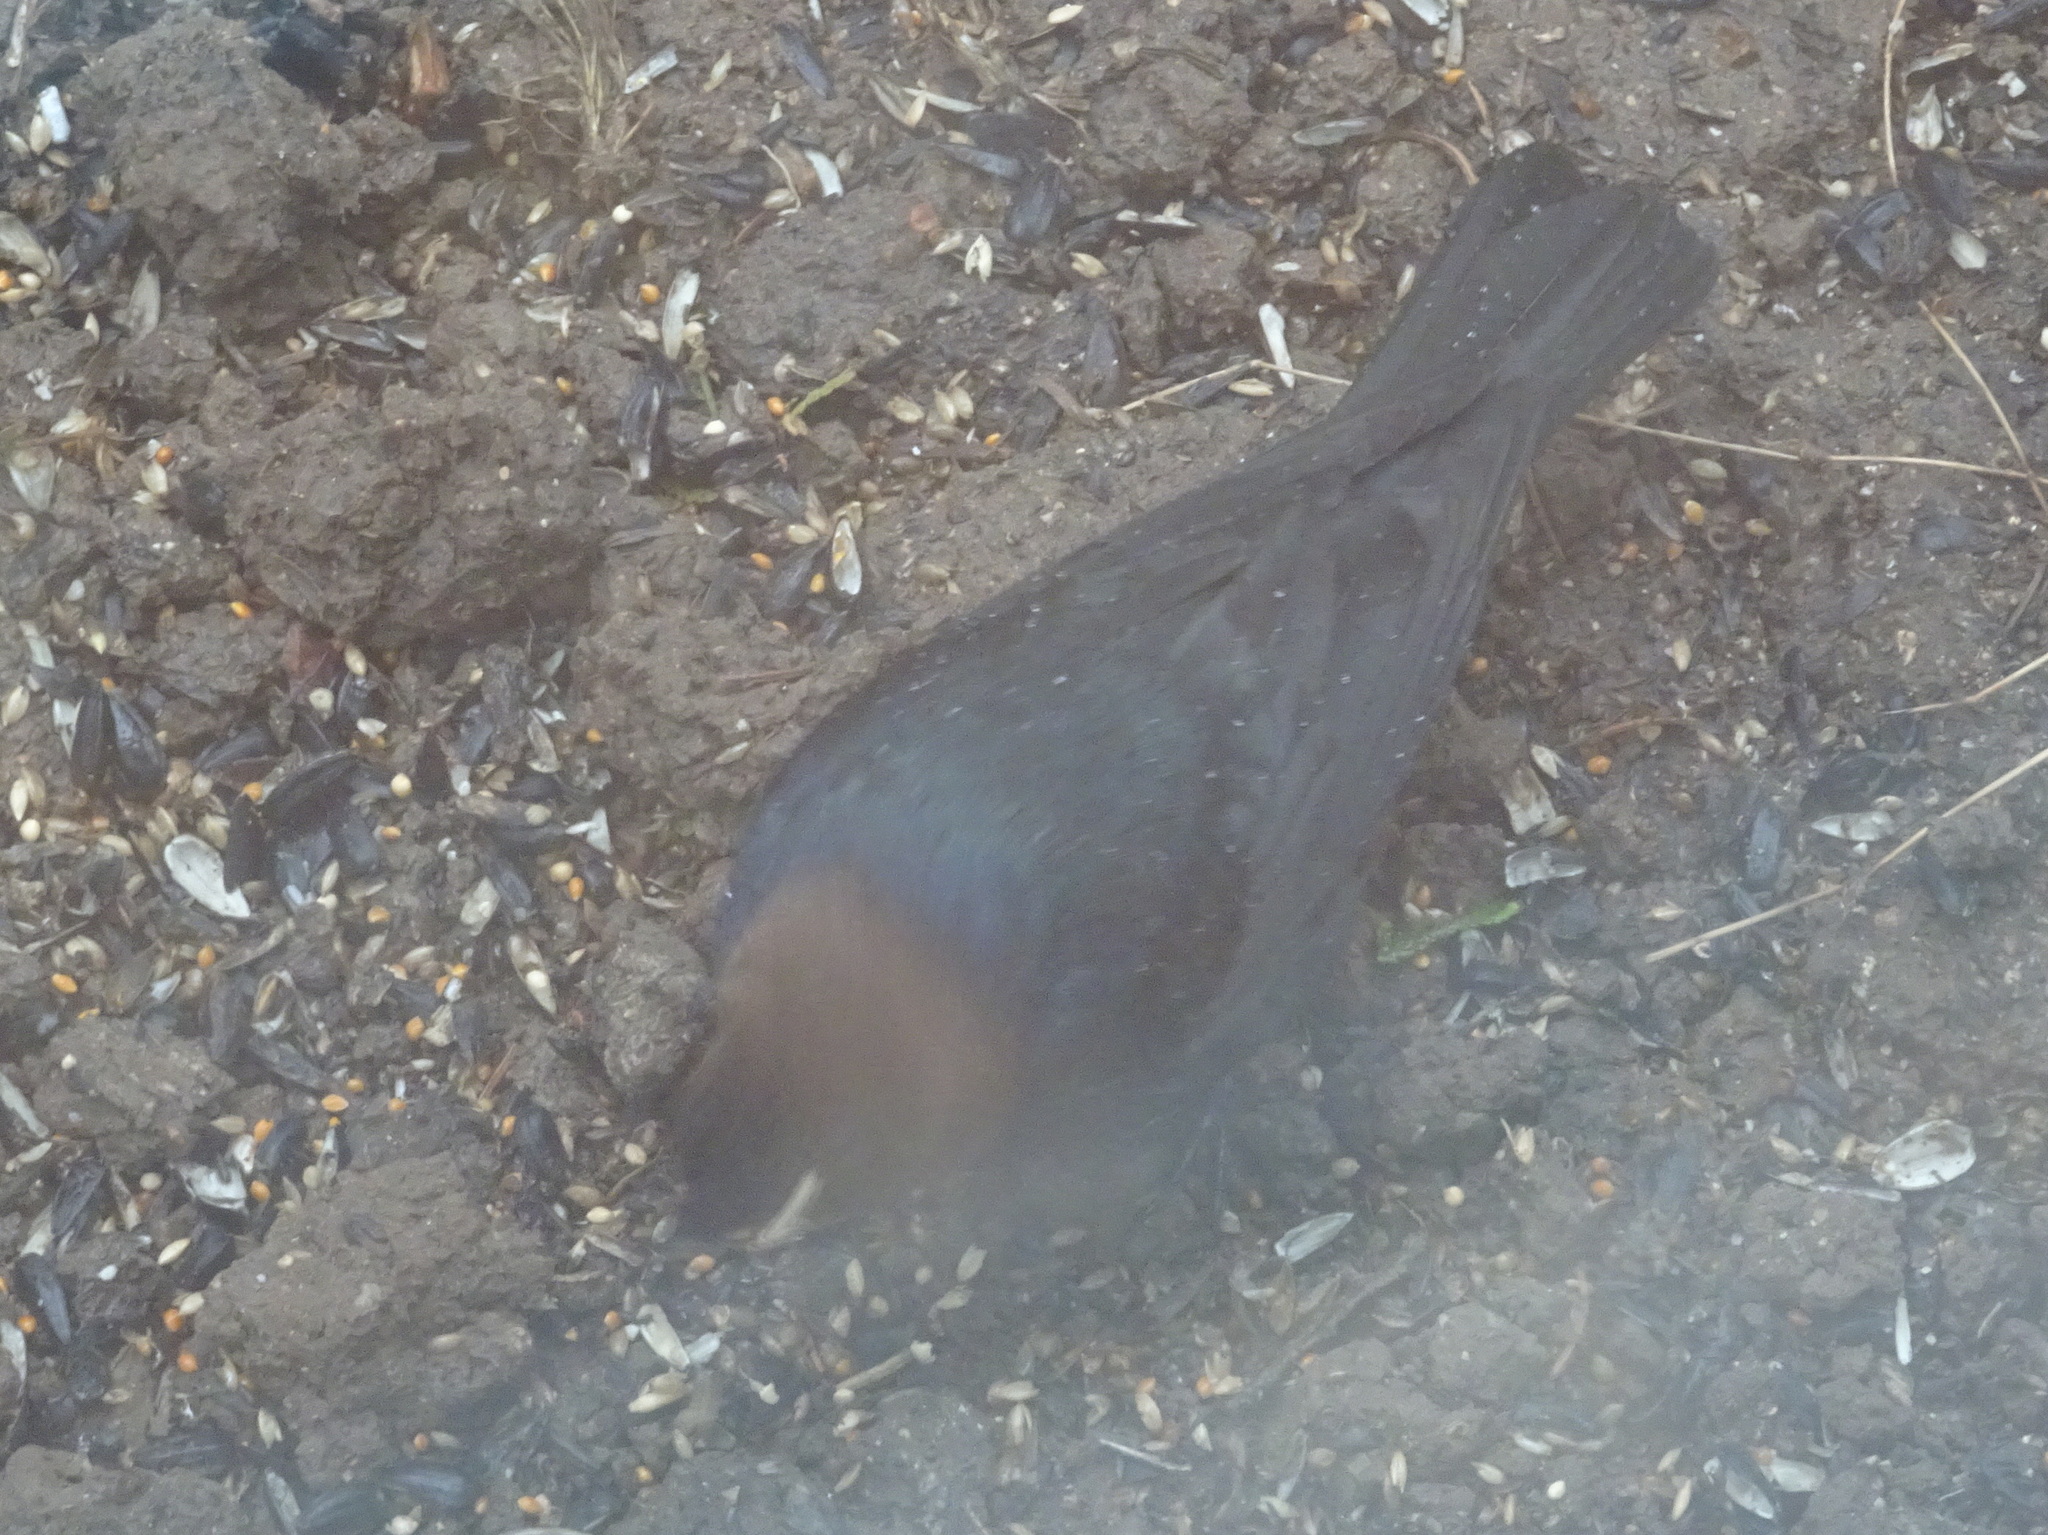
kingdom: Animalia
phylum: Chordata
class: Aves
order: Passeriformes
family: Icteridae
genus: Molothrus
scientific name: Molothrus ater
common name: Brown-headed cowbird
